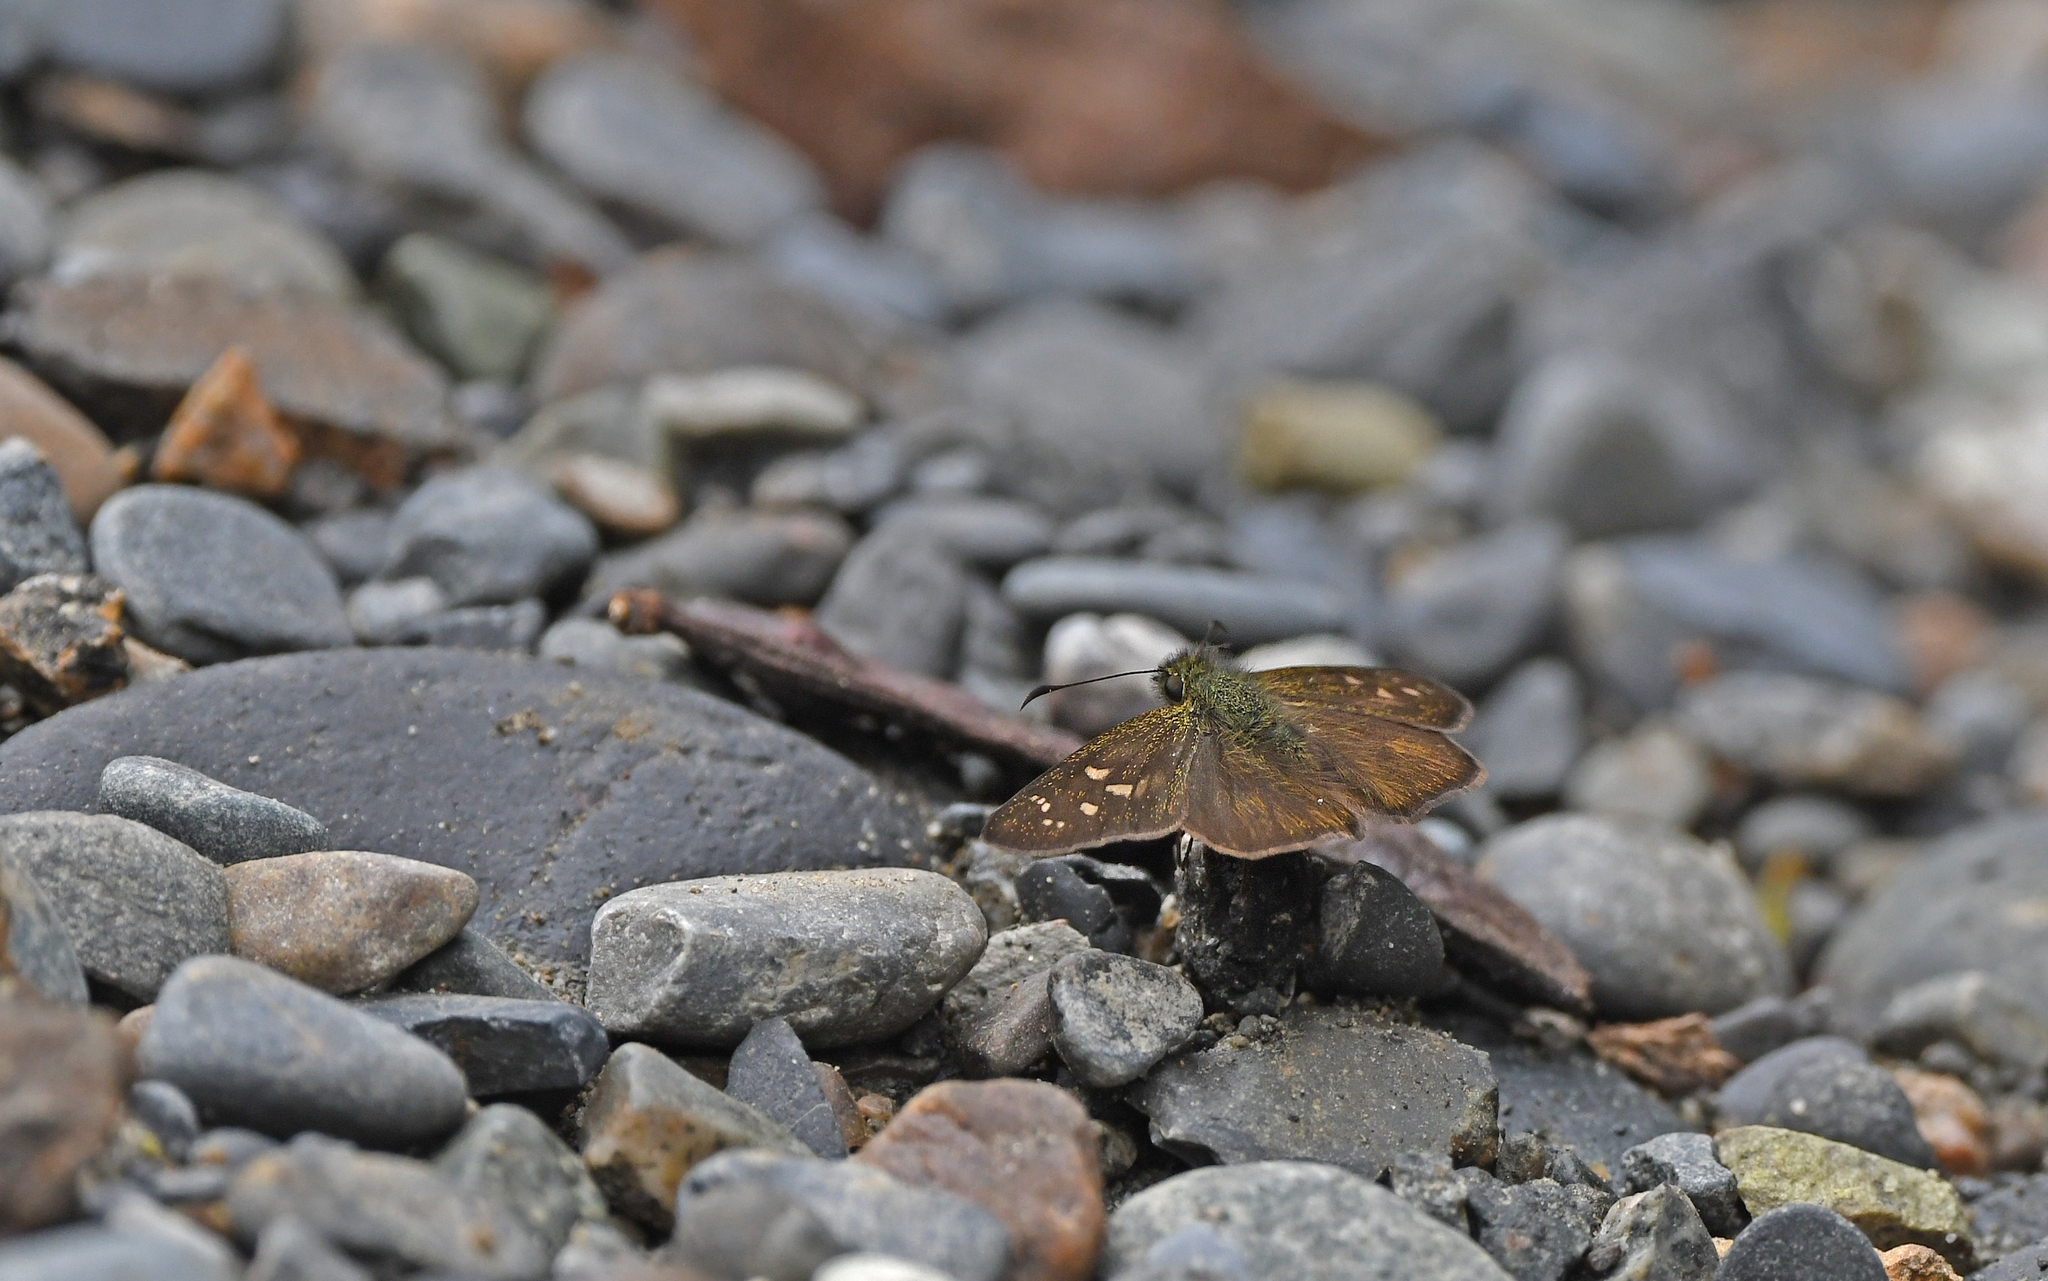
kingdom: Animalia
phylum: Arthropoda
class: Insecta
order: Lepidoptera
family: Hesperiidae
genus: Dalla
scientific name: Dalla plancus
